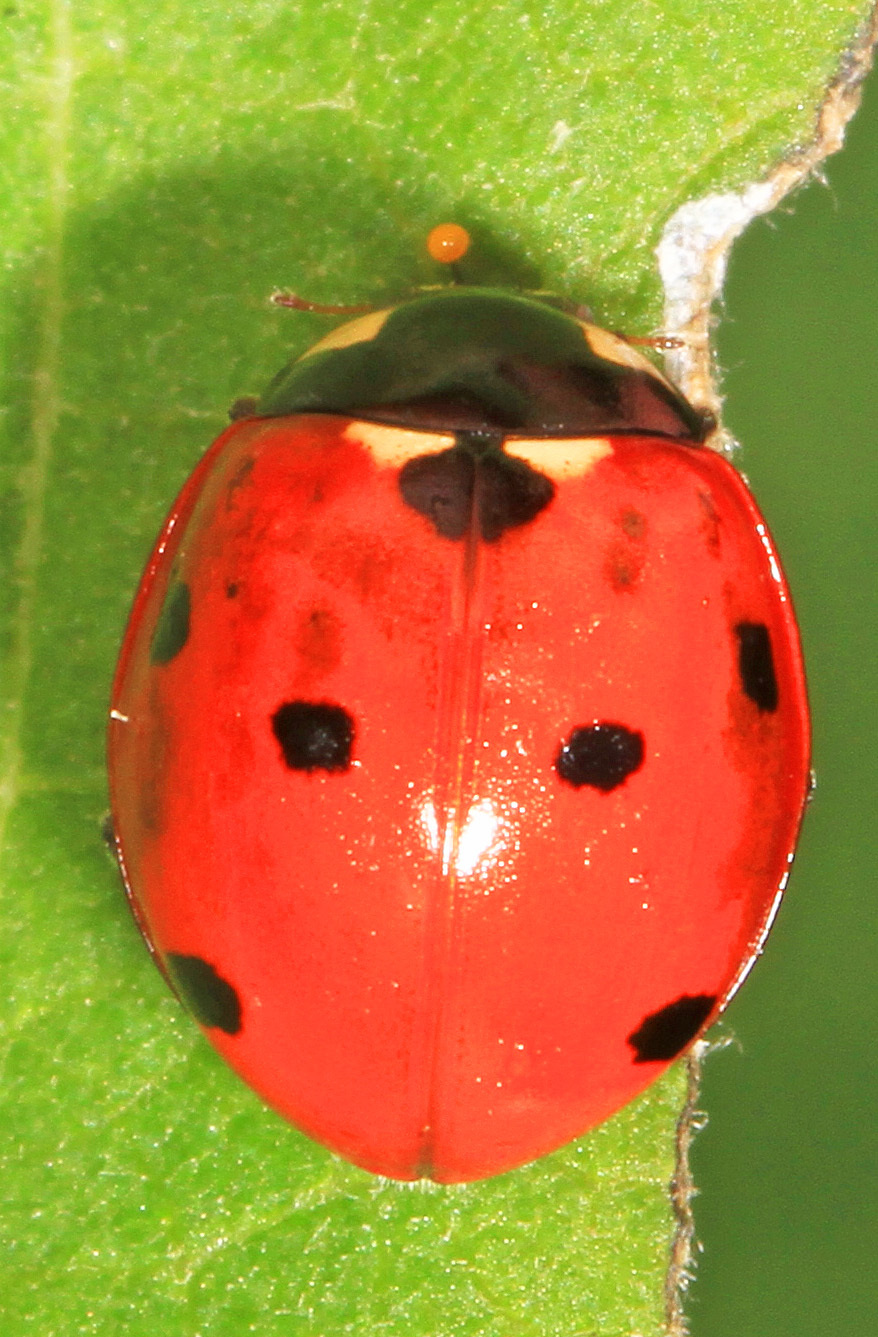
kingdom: Animalia
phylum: Arthropoda
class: Insecta
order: Coleoptera
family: Coccinellidae
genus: Coccinella
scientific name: Coccinella septempunctata
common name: Sevenspotted lady beetle
